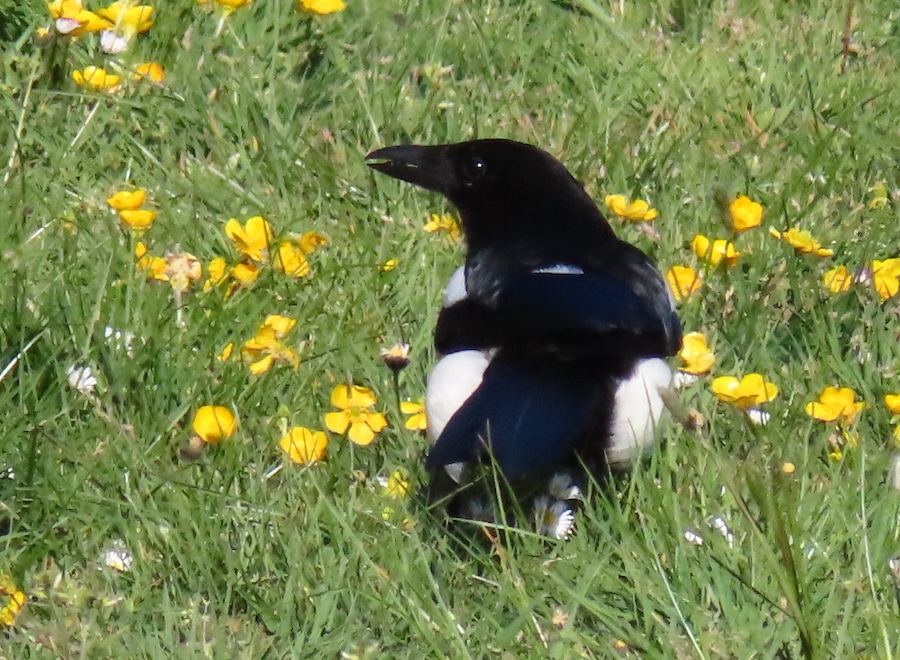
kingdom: Animalia
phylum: Chordata
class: Aves
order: Passeriformes
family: Corvidae
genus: Pica
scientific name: Pica pica
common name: Eurasian magpie
